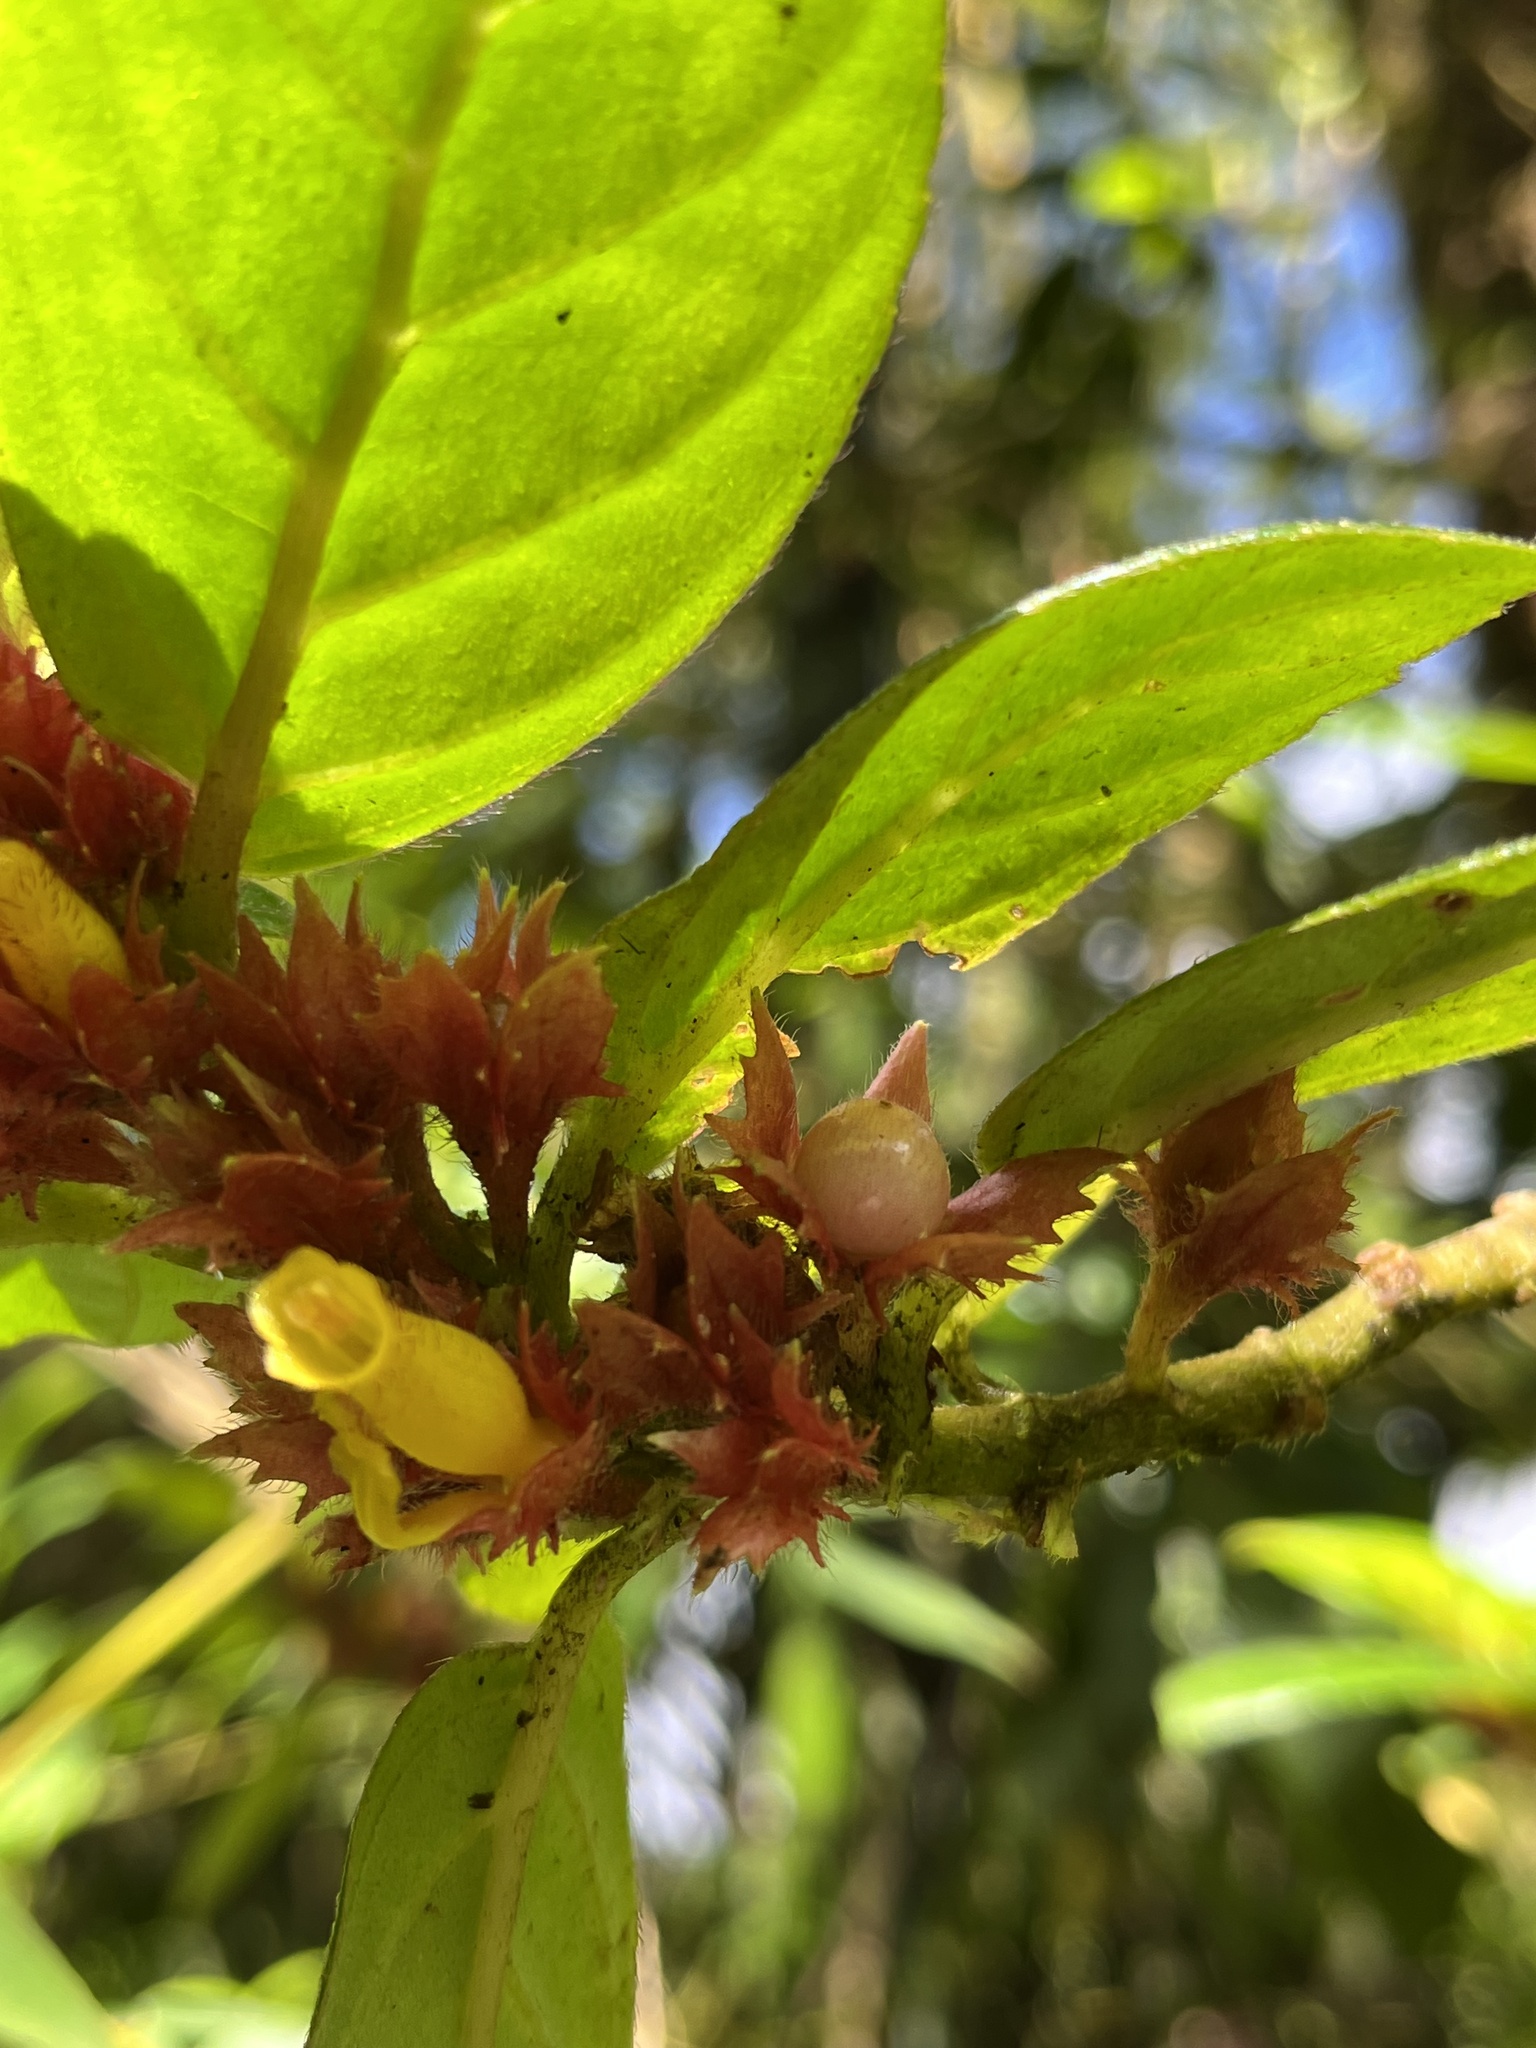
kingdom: Plantae
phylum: Tracheophyta
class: Magnoliopsida
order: Lamiales
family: Gesneriaceae
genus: Columnea
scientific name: Columnea ambigua
